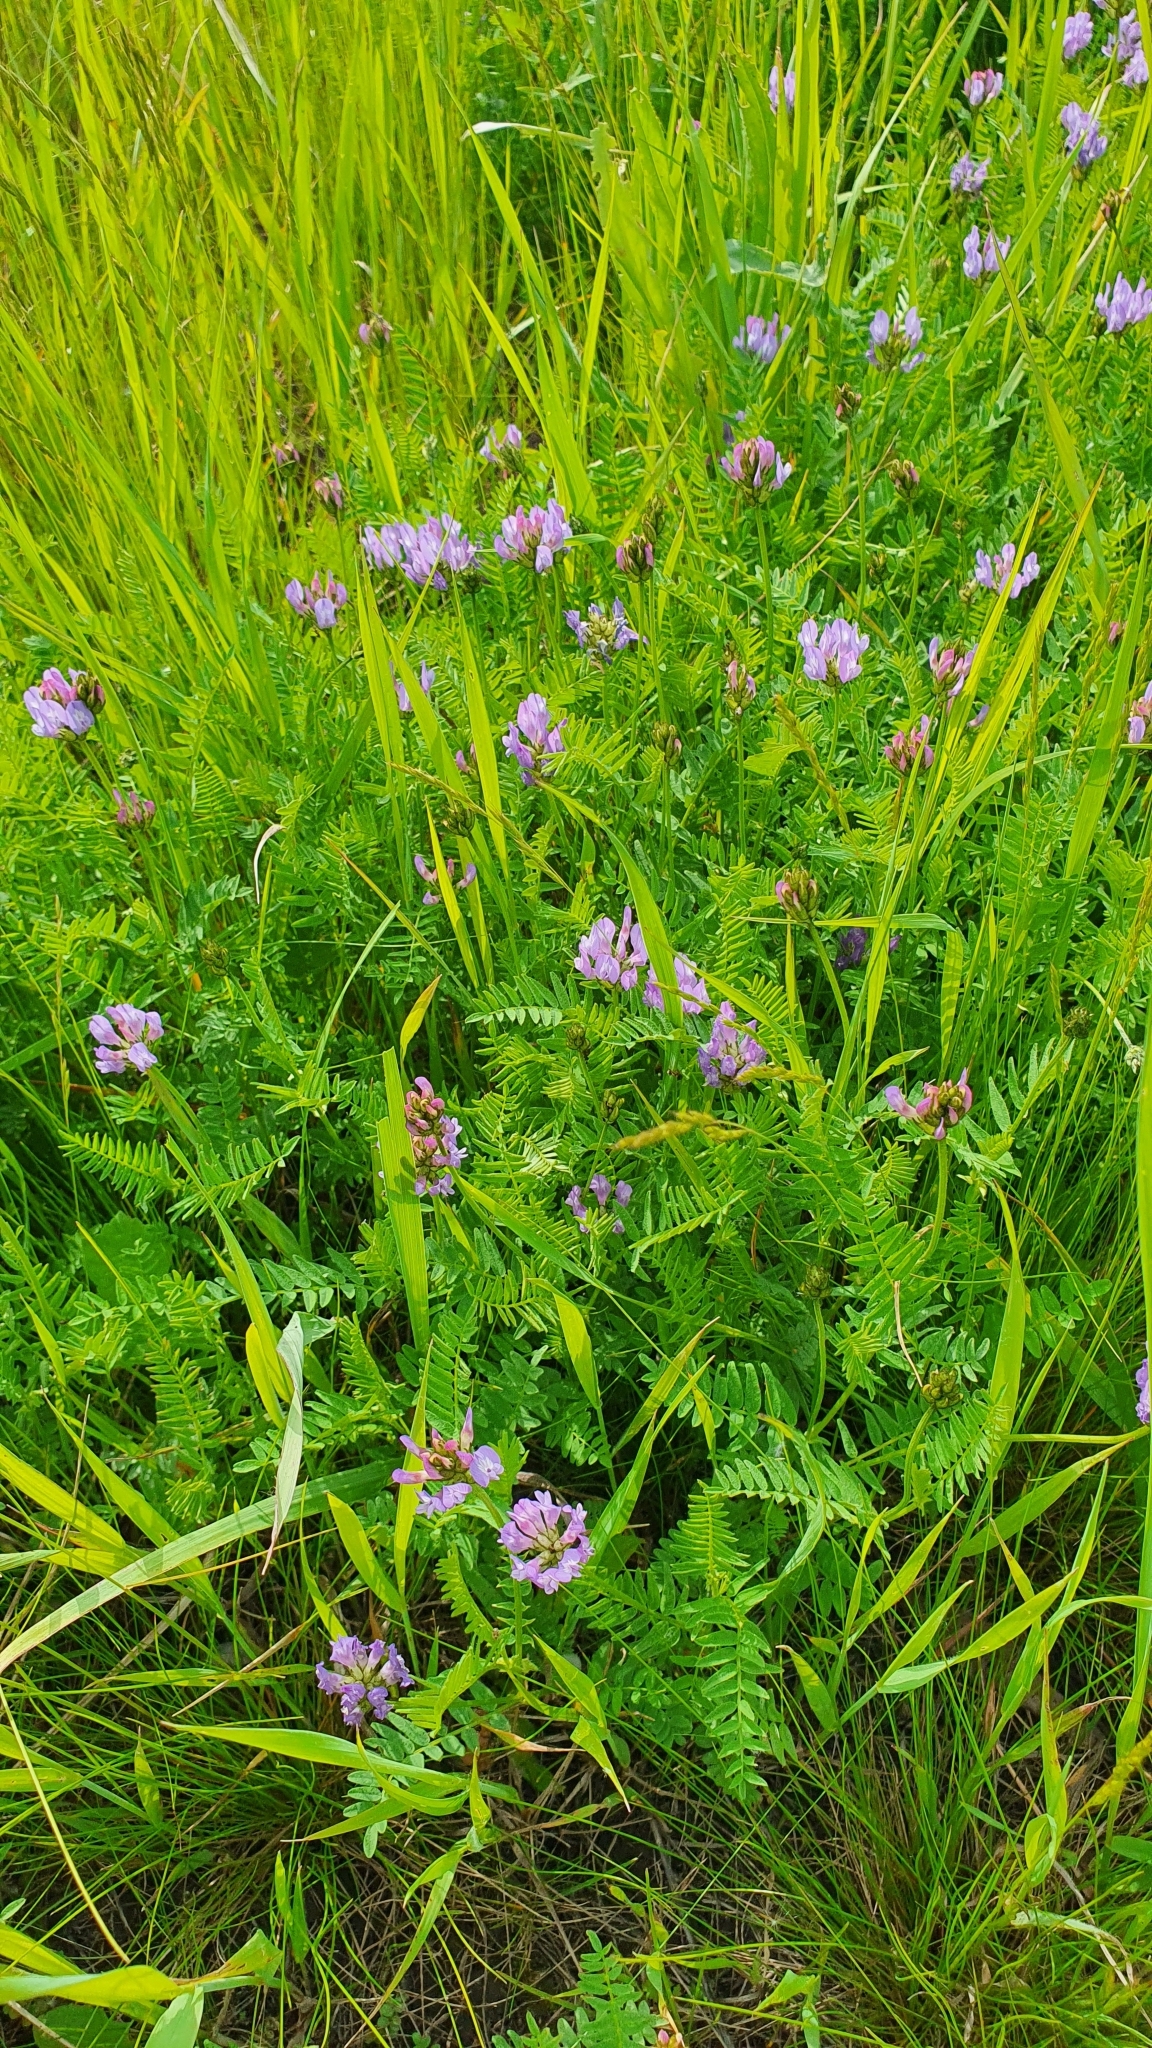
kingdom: Plantae
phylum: Tracheophyta
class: Magnoliopsida
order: Fabales
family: Fabaceae
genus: Astragalus
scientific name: Astragalus danicus
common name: Purple milk-vetch
